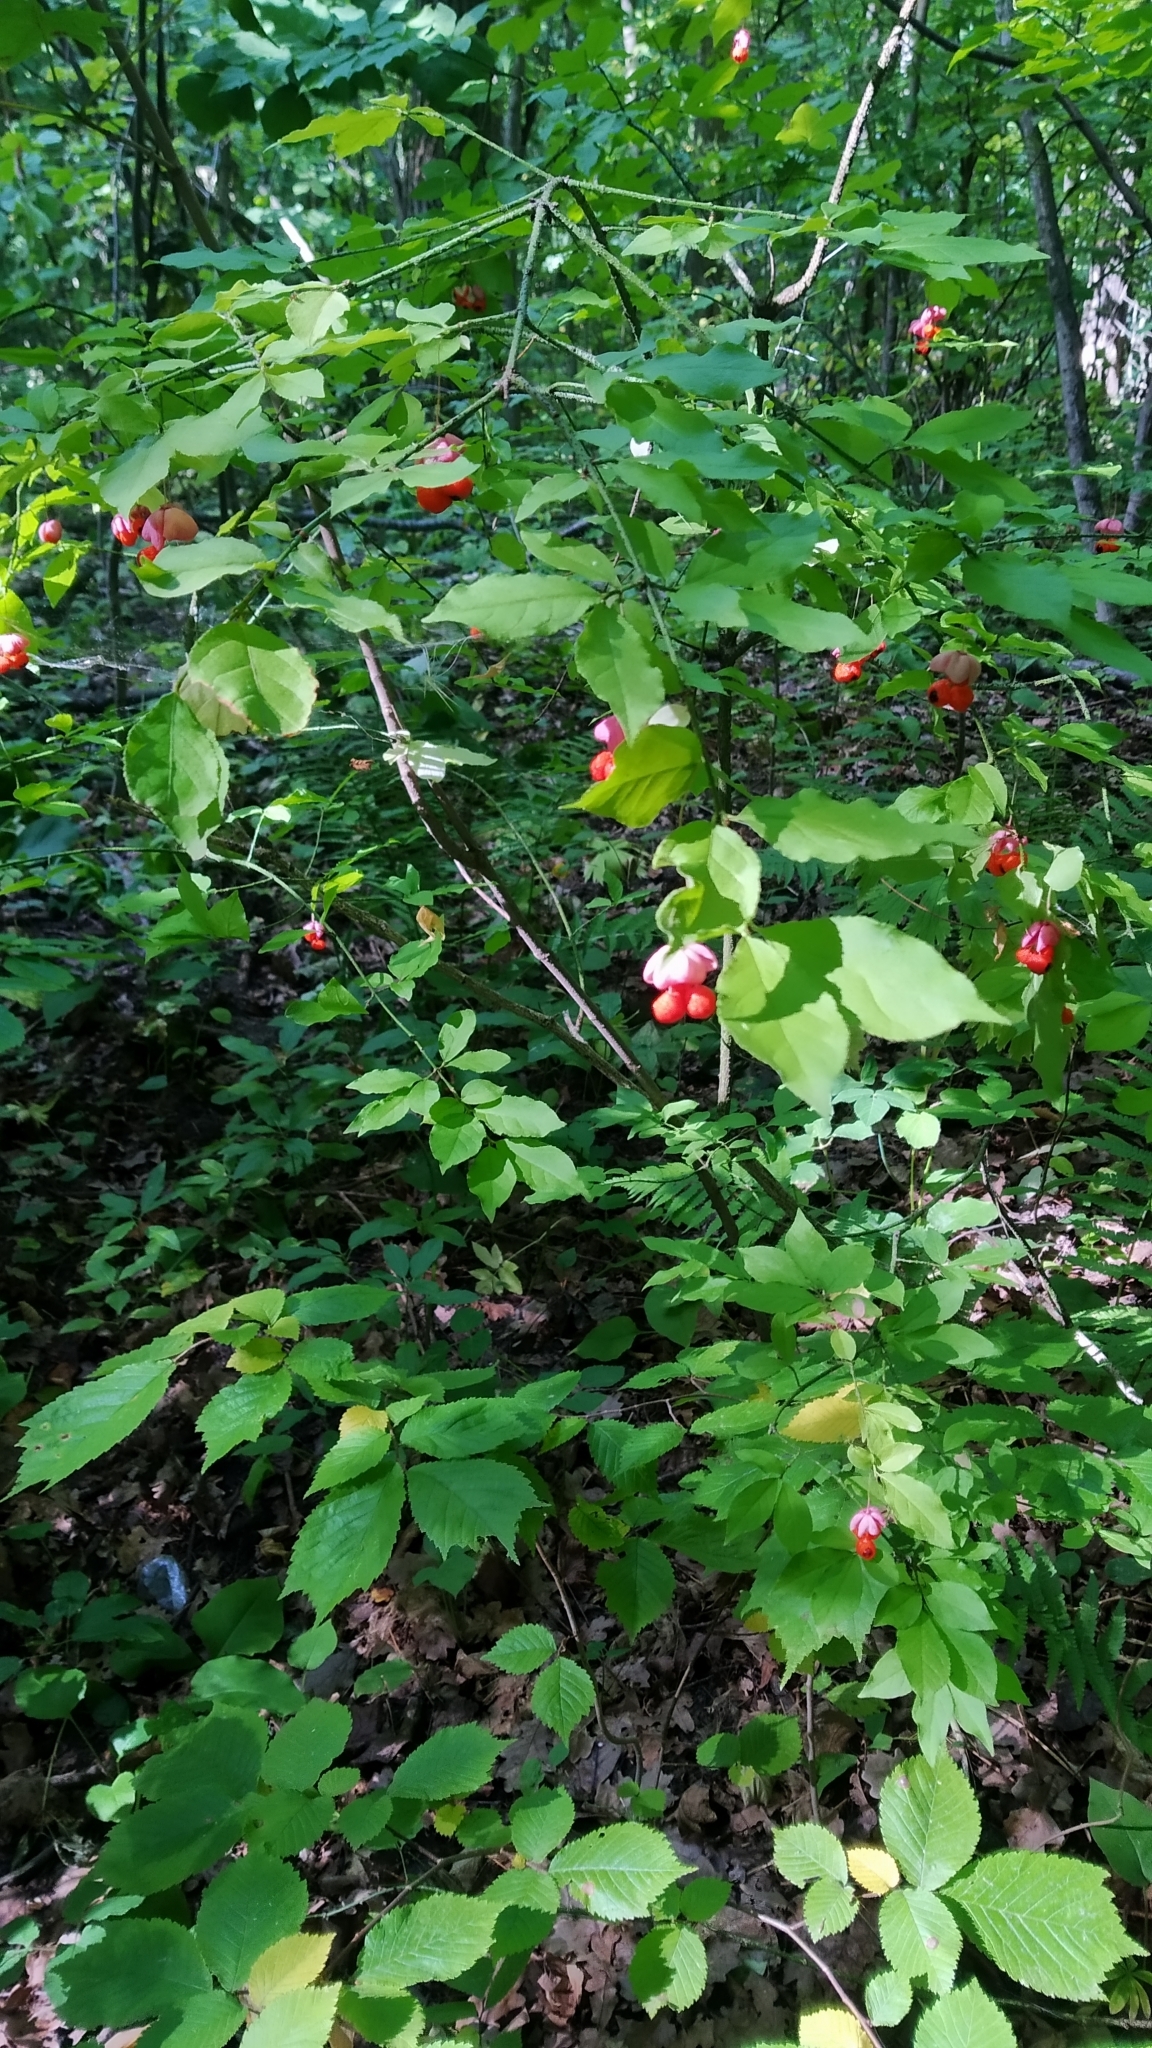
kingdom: Plantae
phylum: Tracheophyta
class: Magnoliopsida
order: Celastrales
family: Celastraceae
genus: Euonymus
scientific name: Euonymus verrucosus
